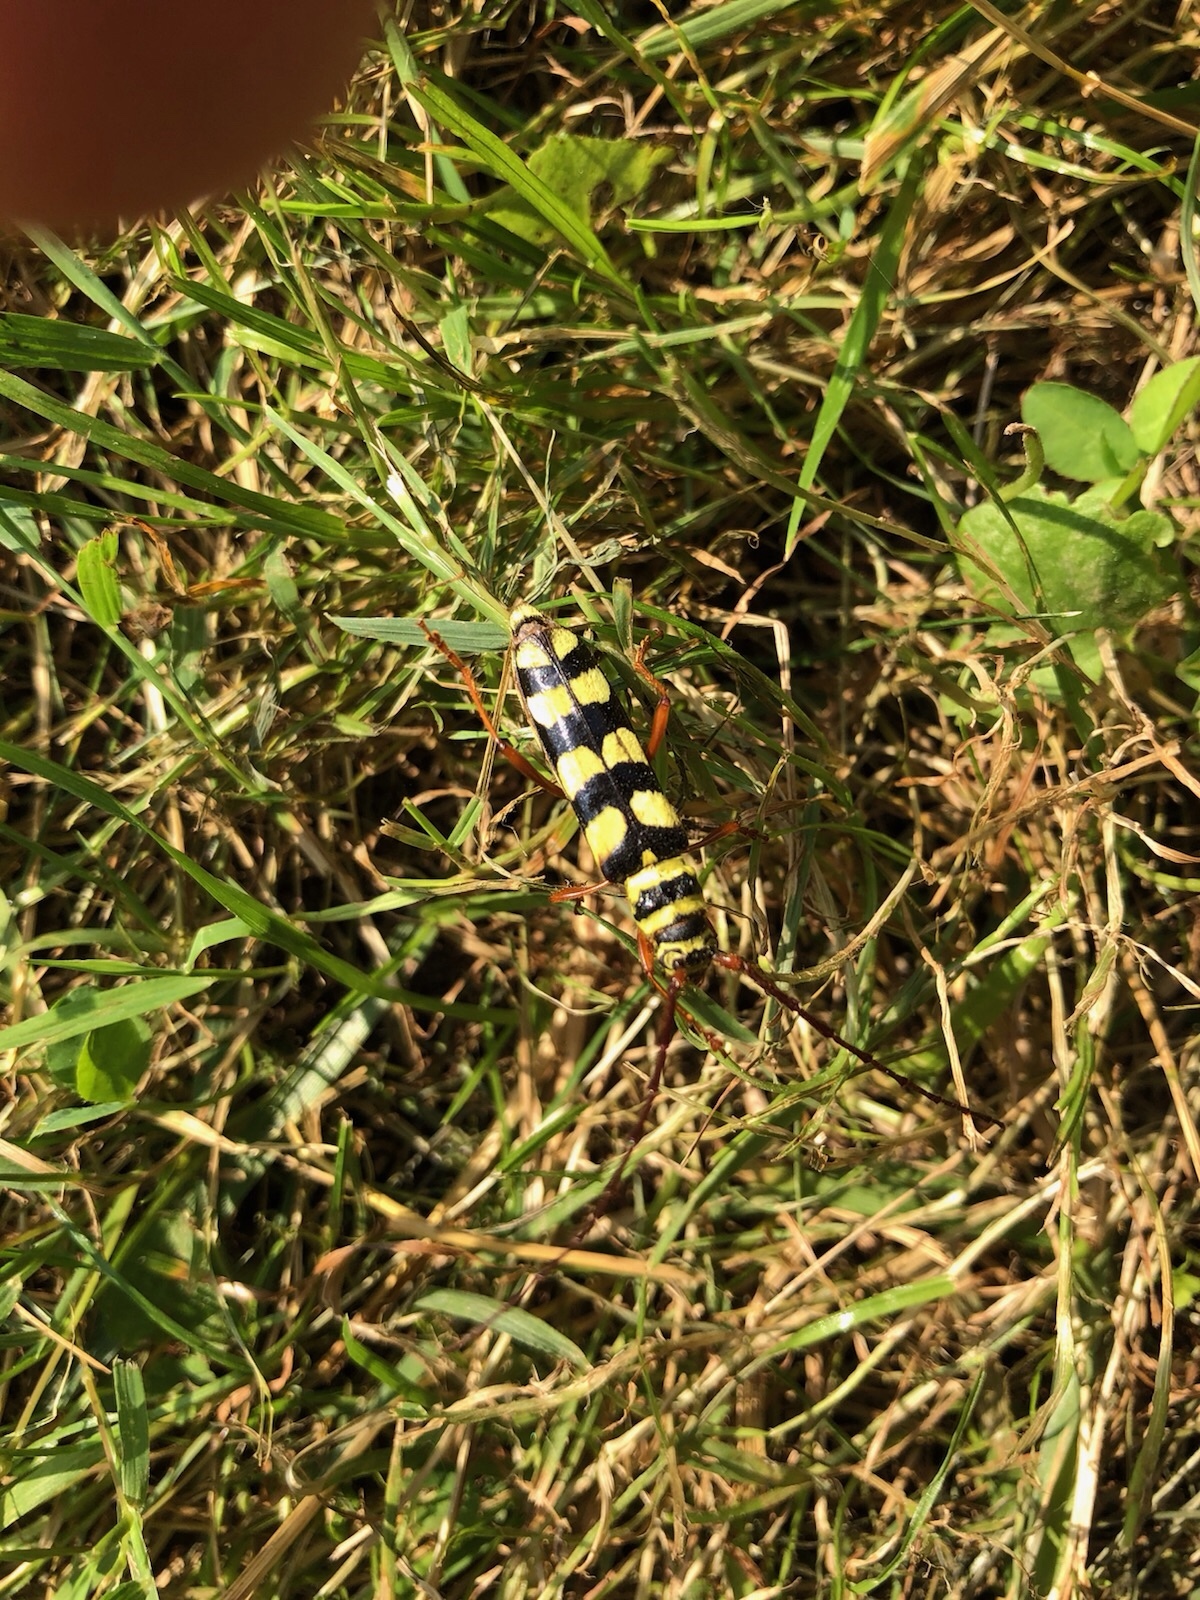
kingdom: Animalia
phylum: Arthropoda
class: Insecta
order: Coleoptera
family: Cerambycidae
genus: Dryobius
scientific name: Dryobius sexnotatus
